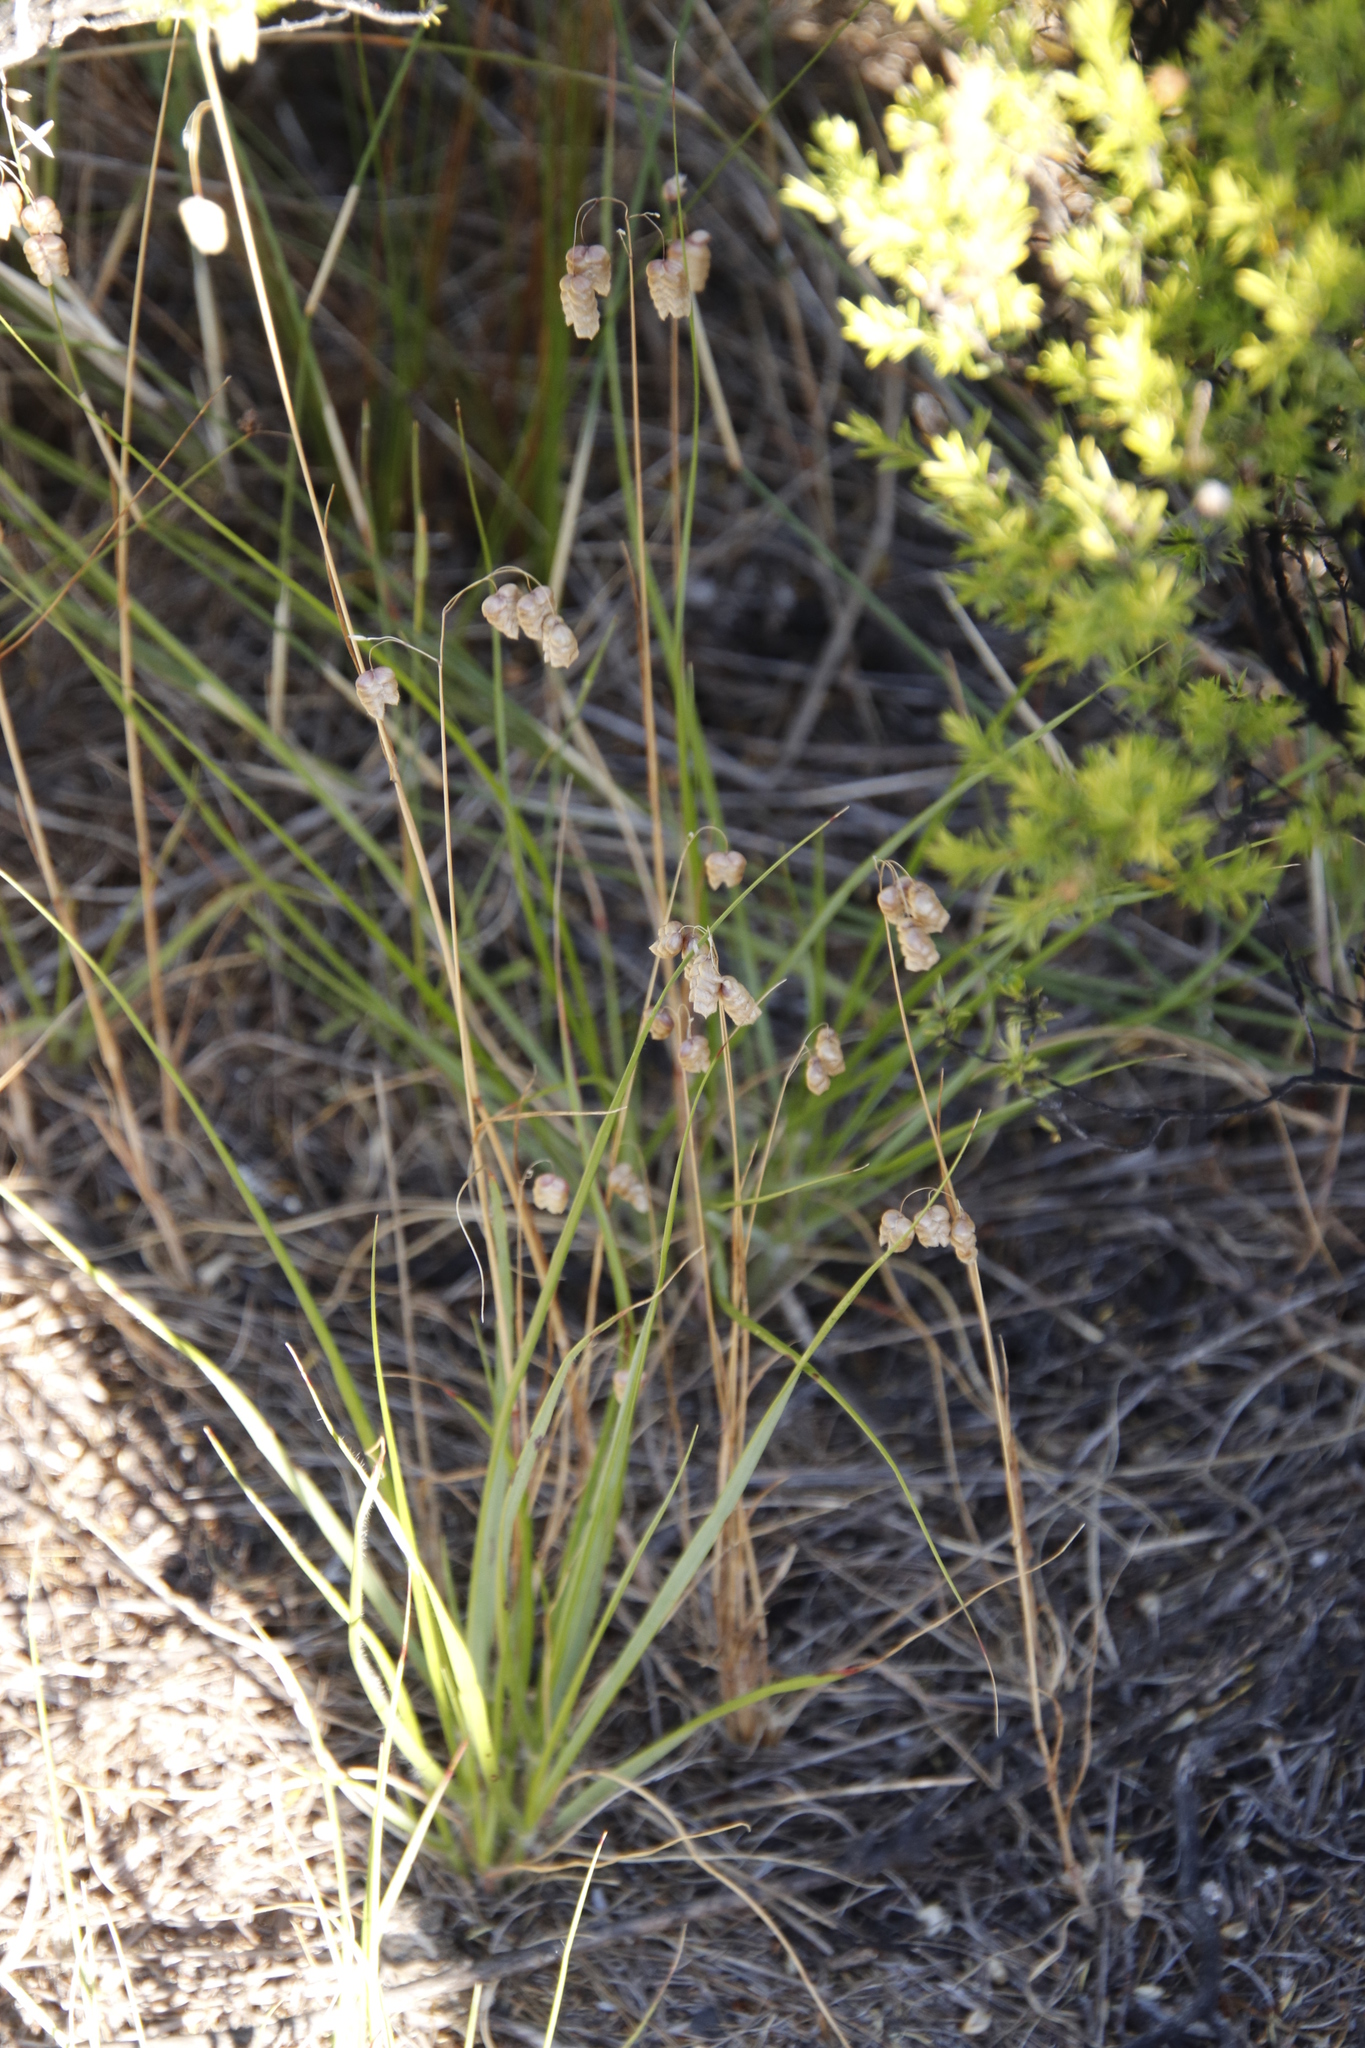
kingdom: Plantae
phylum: Tracheophyta
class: Liliopsida
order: Poales
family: Poaceae
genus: Briza
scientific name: Briza maxima
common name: Big quakinggrass
